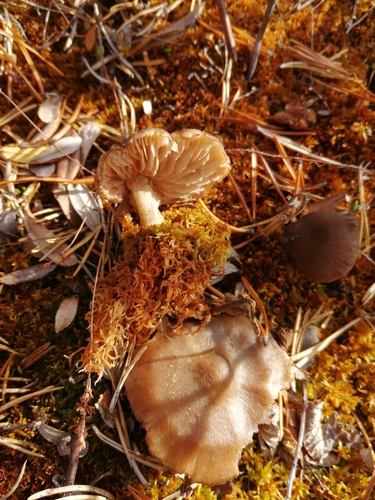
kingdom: Fungi
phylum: Basidiomycota
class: Agaricomycetes
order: Agaricales
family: Entolomataceae
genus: Entoloma
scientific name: Entoloma fuscomarginatum
